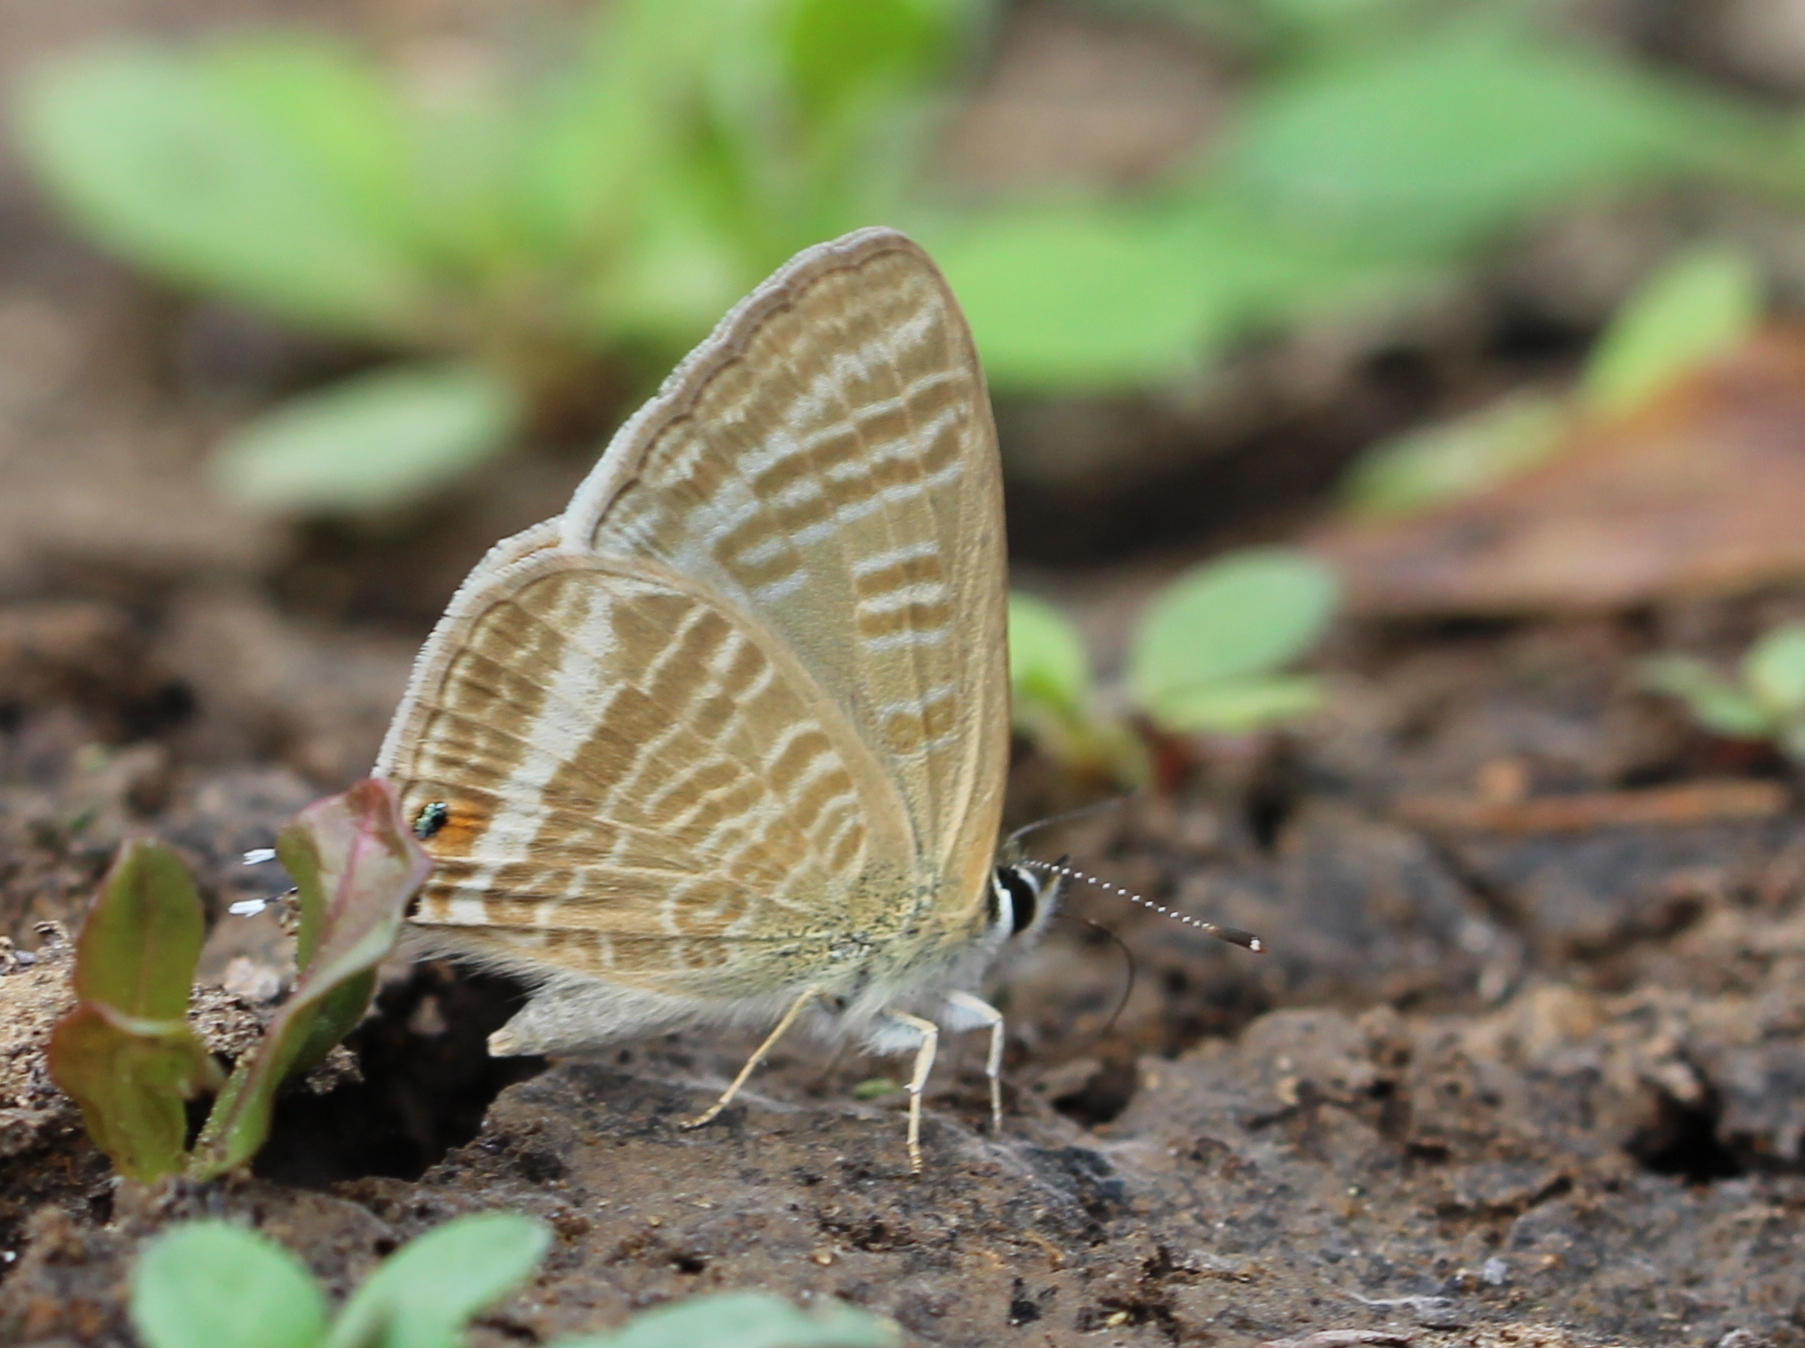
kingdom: Animalia
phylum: Arthropoda
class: Insecta
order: Lepidoptera
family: Lycaenidae
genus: Lampides
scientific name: Lampides boeticus
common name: Long-tailed blue
